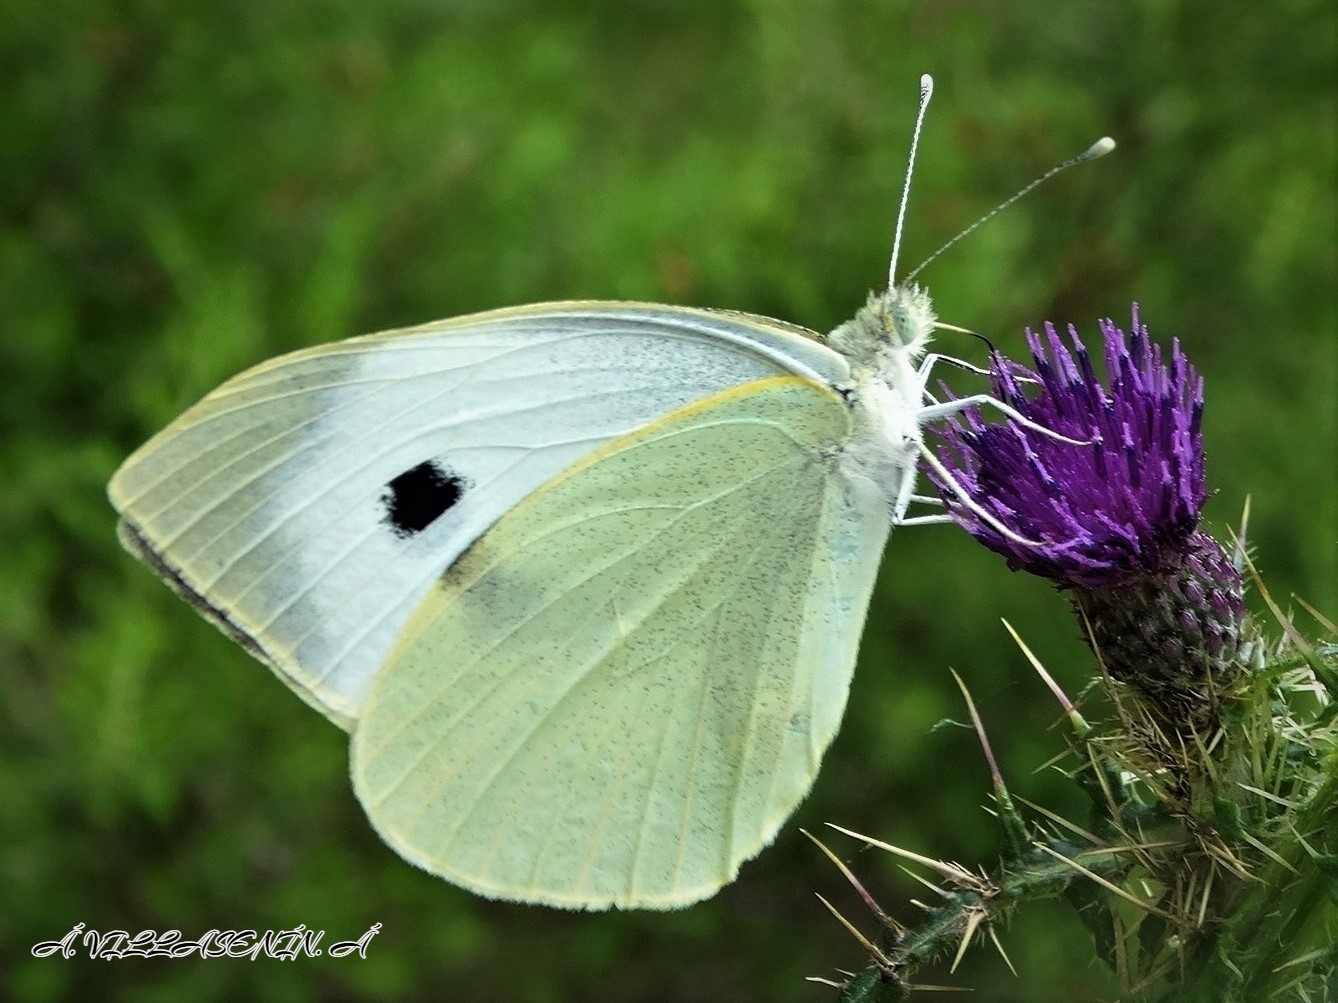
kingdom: Animalia
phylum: Arthropoda
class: Insecta
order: Lepidoptera
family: Pieridae
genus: Pieris
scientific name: Pieris brassicae
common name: Large white
